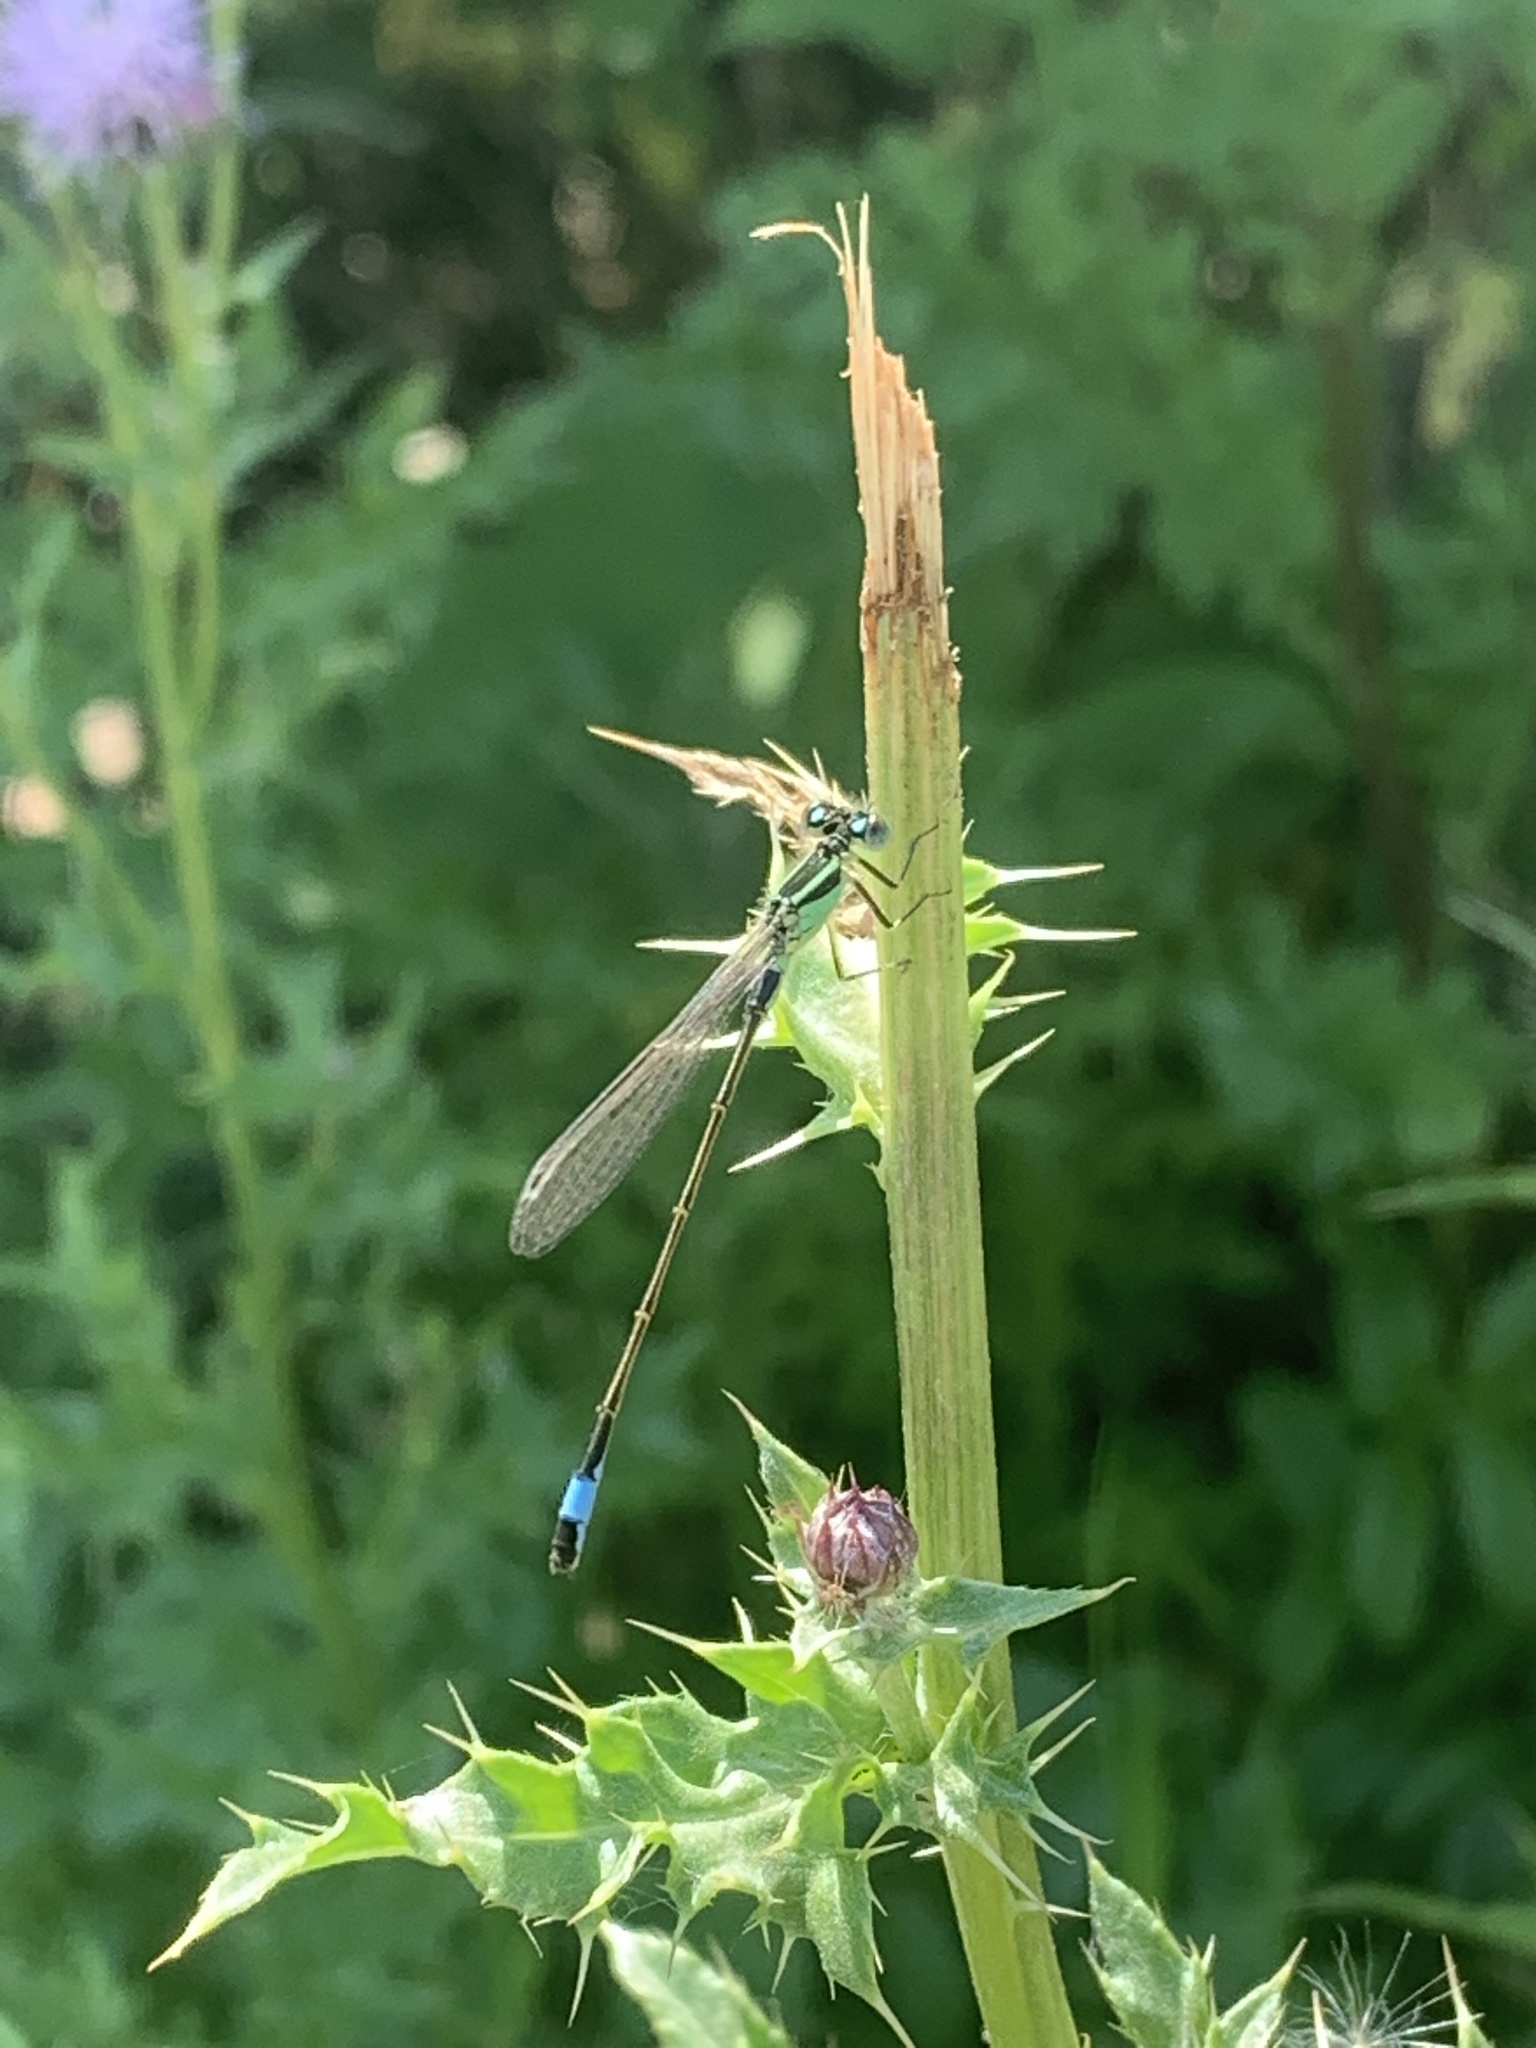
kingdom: Animalia
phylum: Arthropoda
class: Insecta
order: Odonata
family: Coenagrionidae
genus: Ischnura
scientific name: Ischnura elegans
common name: Blue-tailed damselfly
